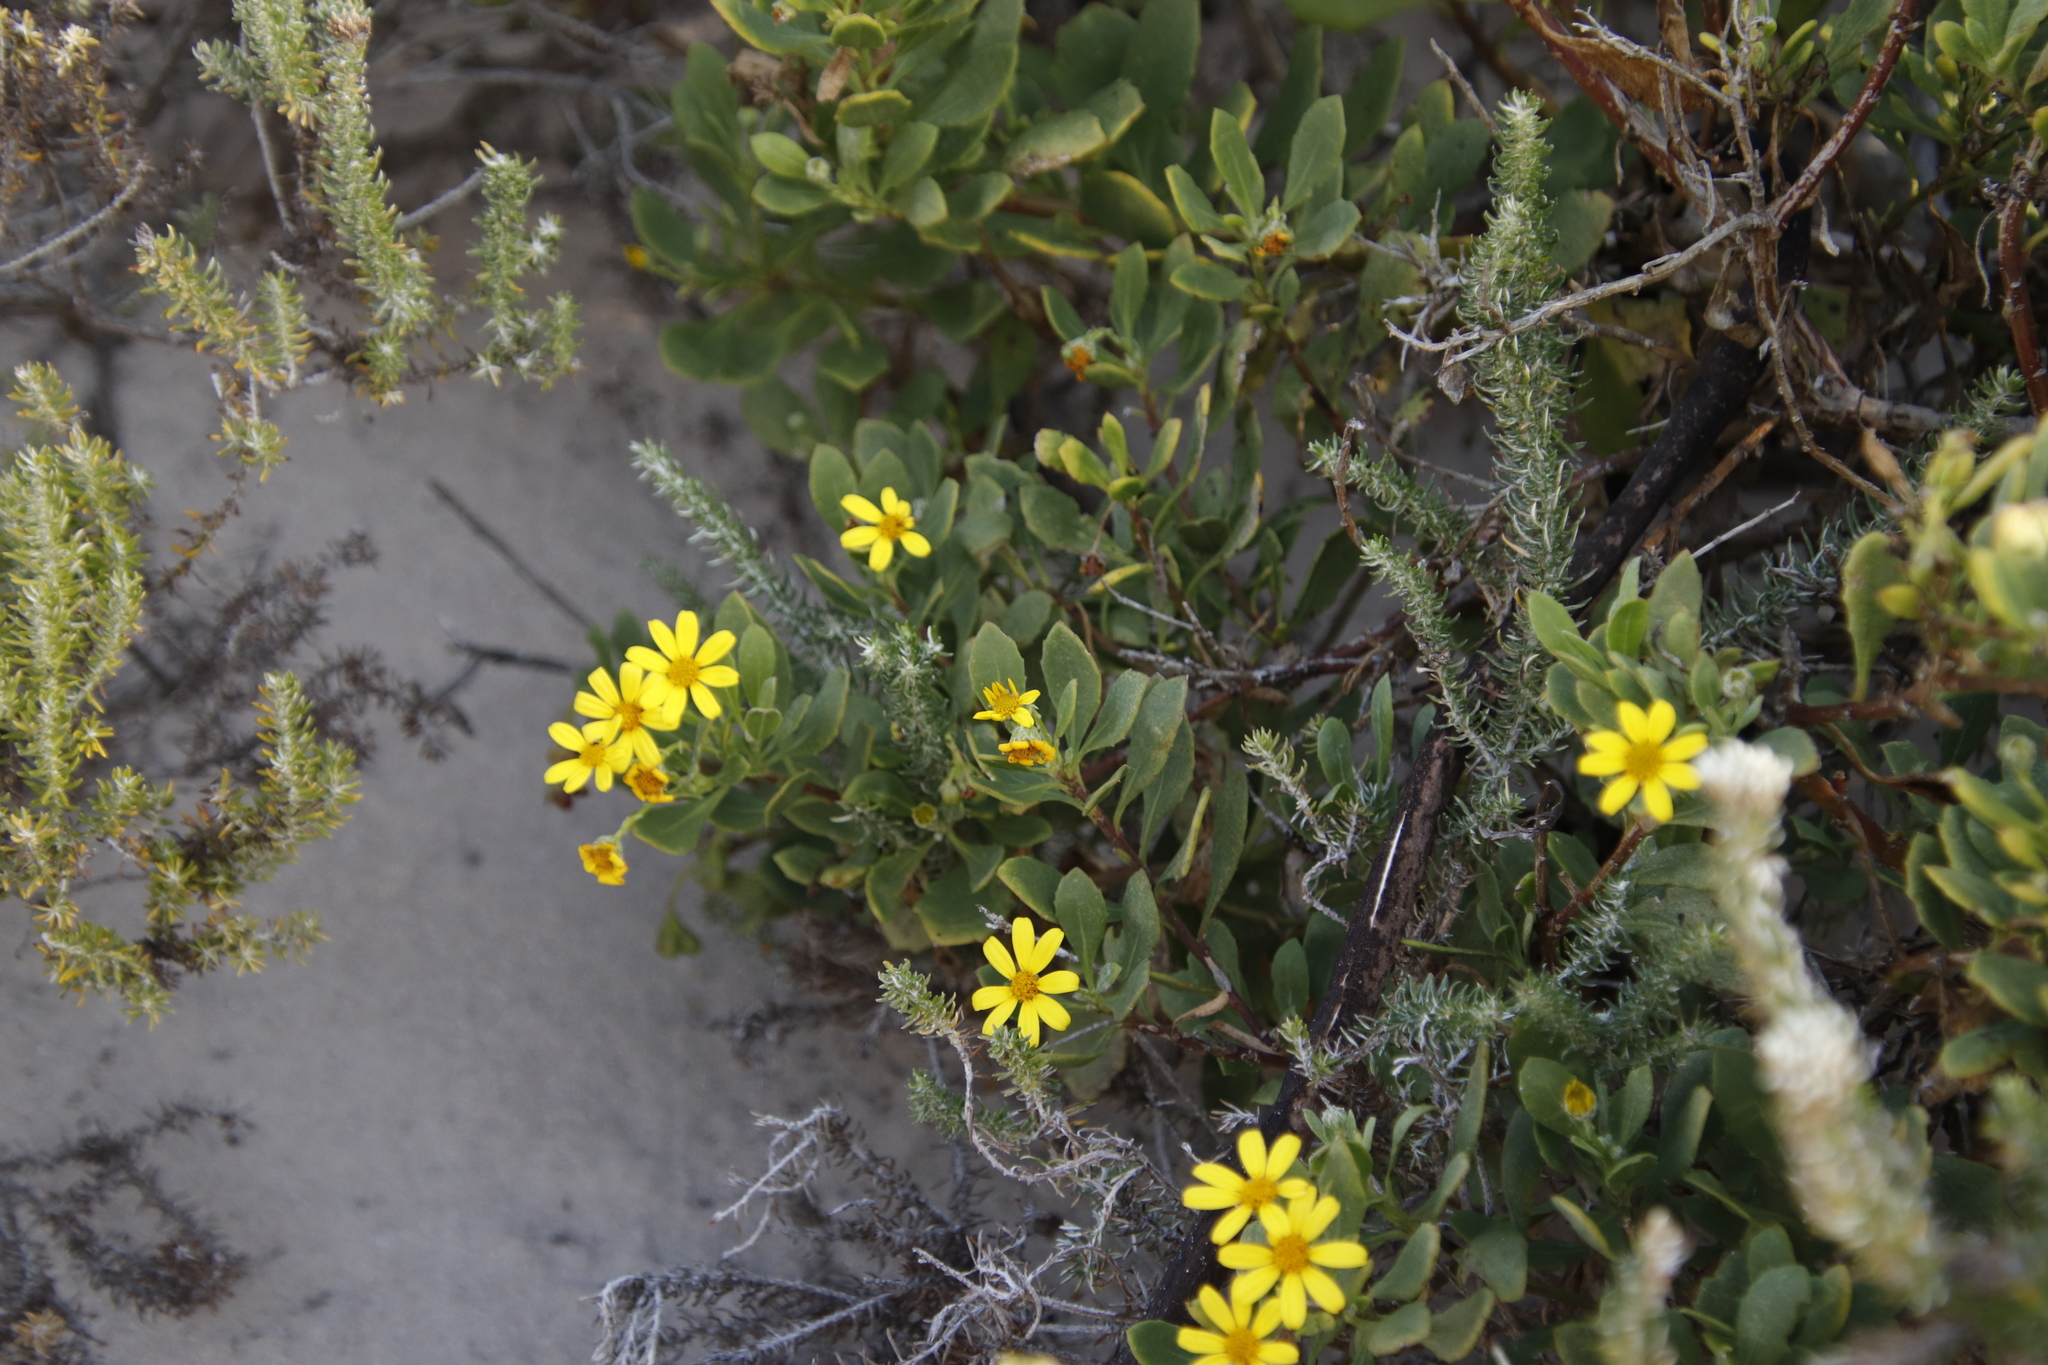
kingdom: Plantae
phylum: Tracheophyta
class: Magnoliopsida
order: Asterales
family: Asteraceae
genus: Osteospermum
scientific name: Osteospermum moniliferum
